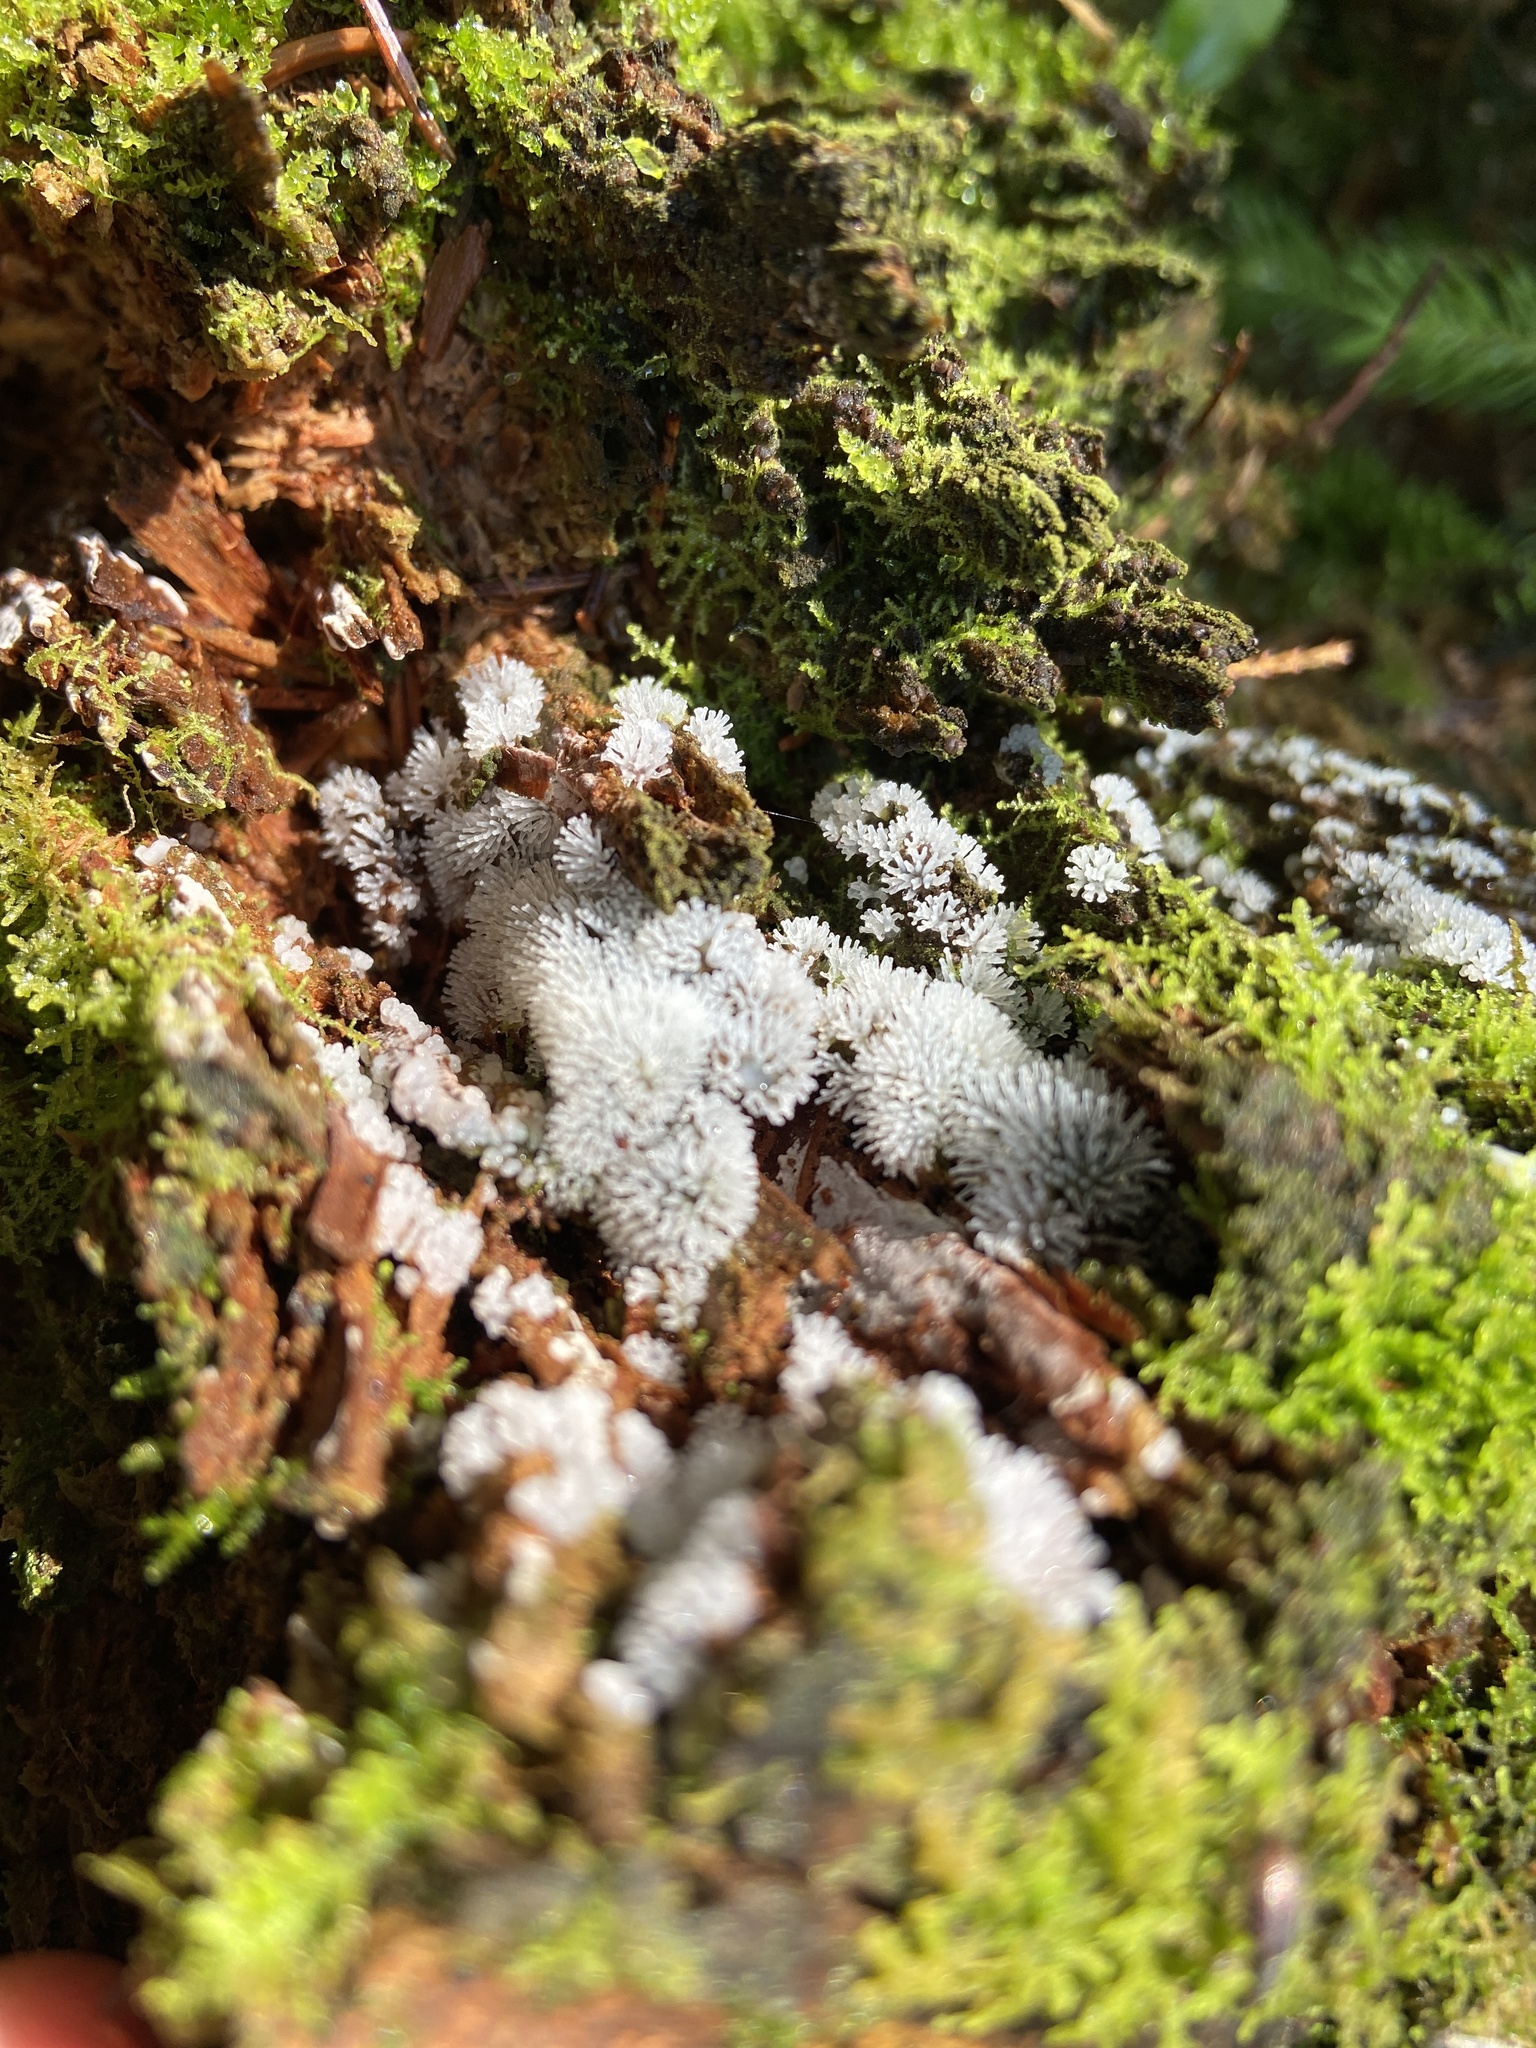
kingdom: Protozoa
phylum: Mycetozoa
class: Protosteliomycetes
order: Ceratiomyxales
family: Ceratiomyxaceae
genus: Ceratiomyxa
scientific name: Ceratiomyxa fruticulosa
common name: Honeycomb coral slime mold
